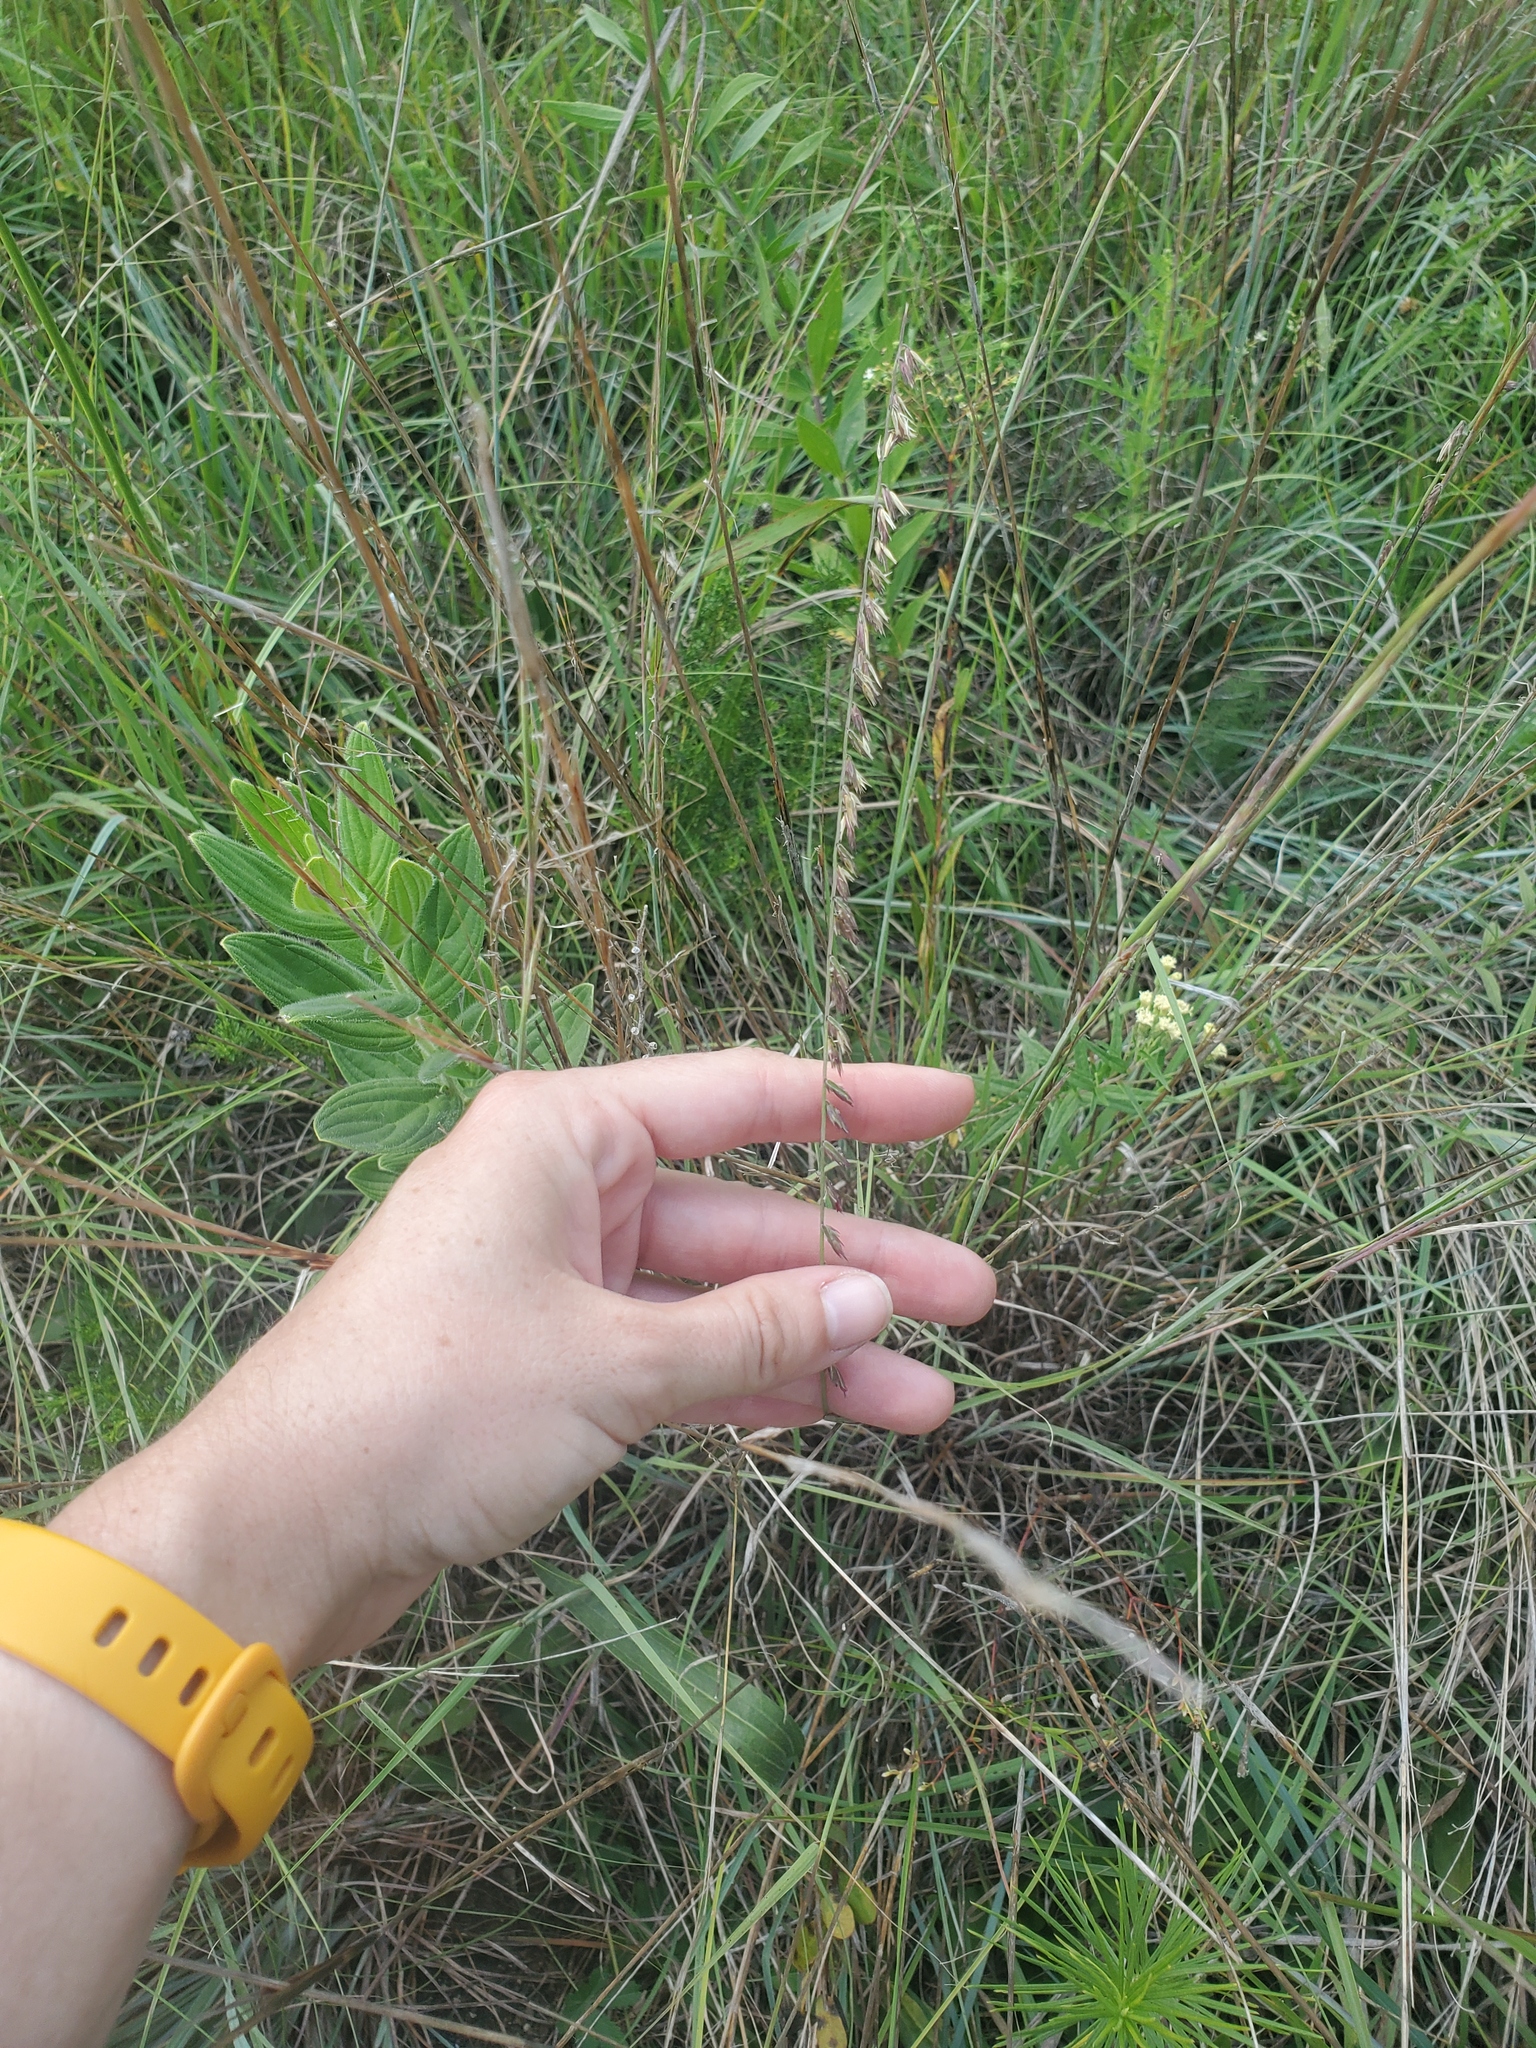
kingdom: Plantae
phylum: Tracheophyta
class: Liliopsida
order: Poales
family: Poaceae
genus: Bouteloua
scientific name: Bouteloua curtipendula
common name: Side-oats grama
